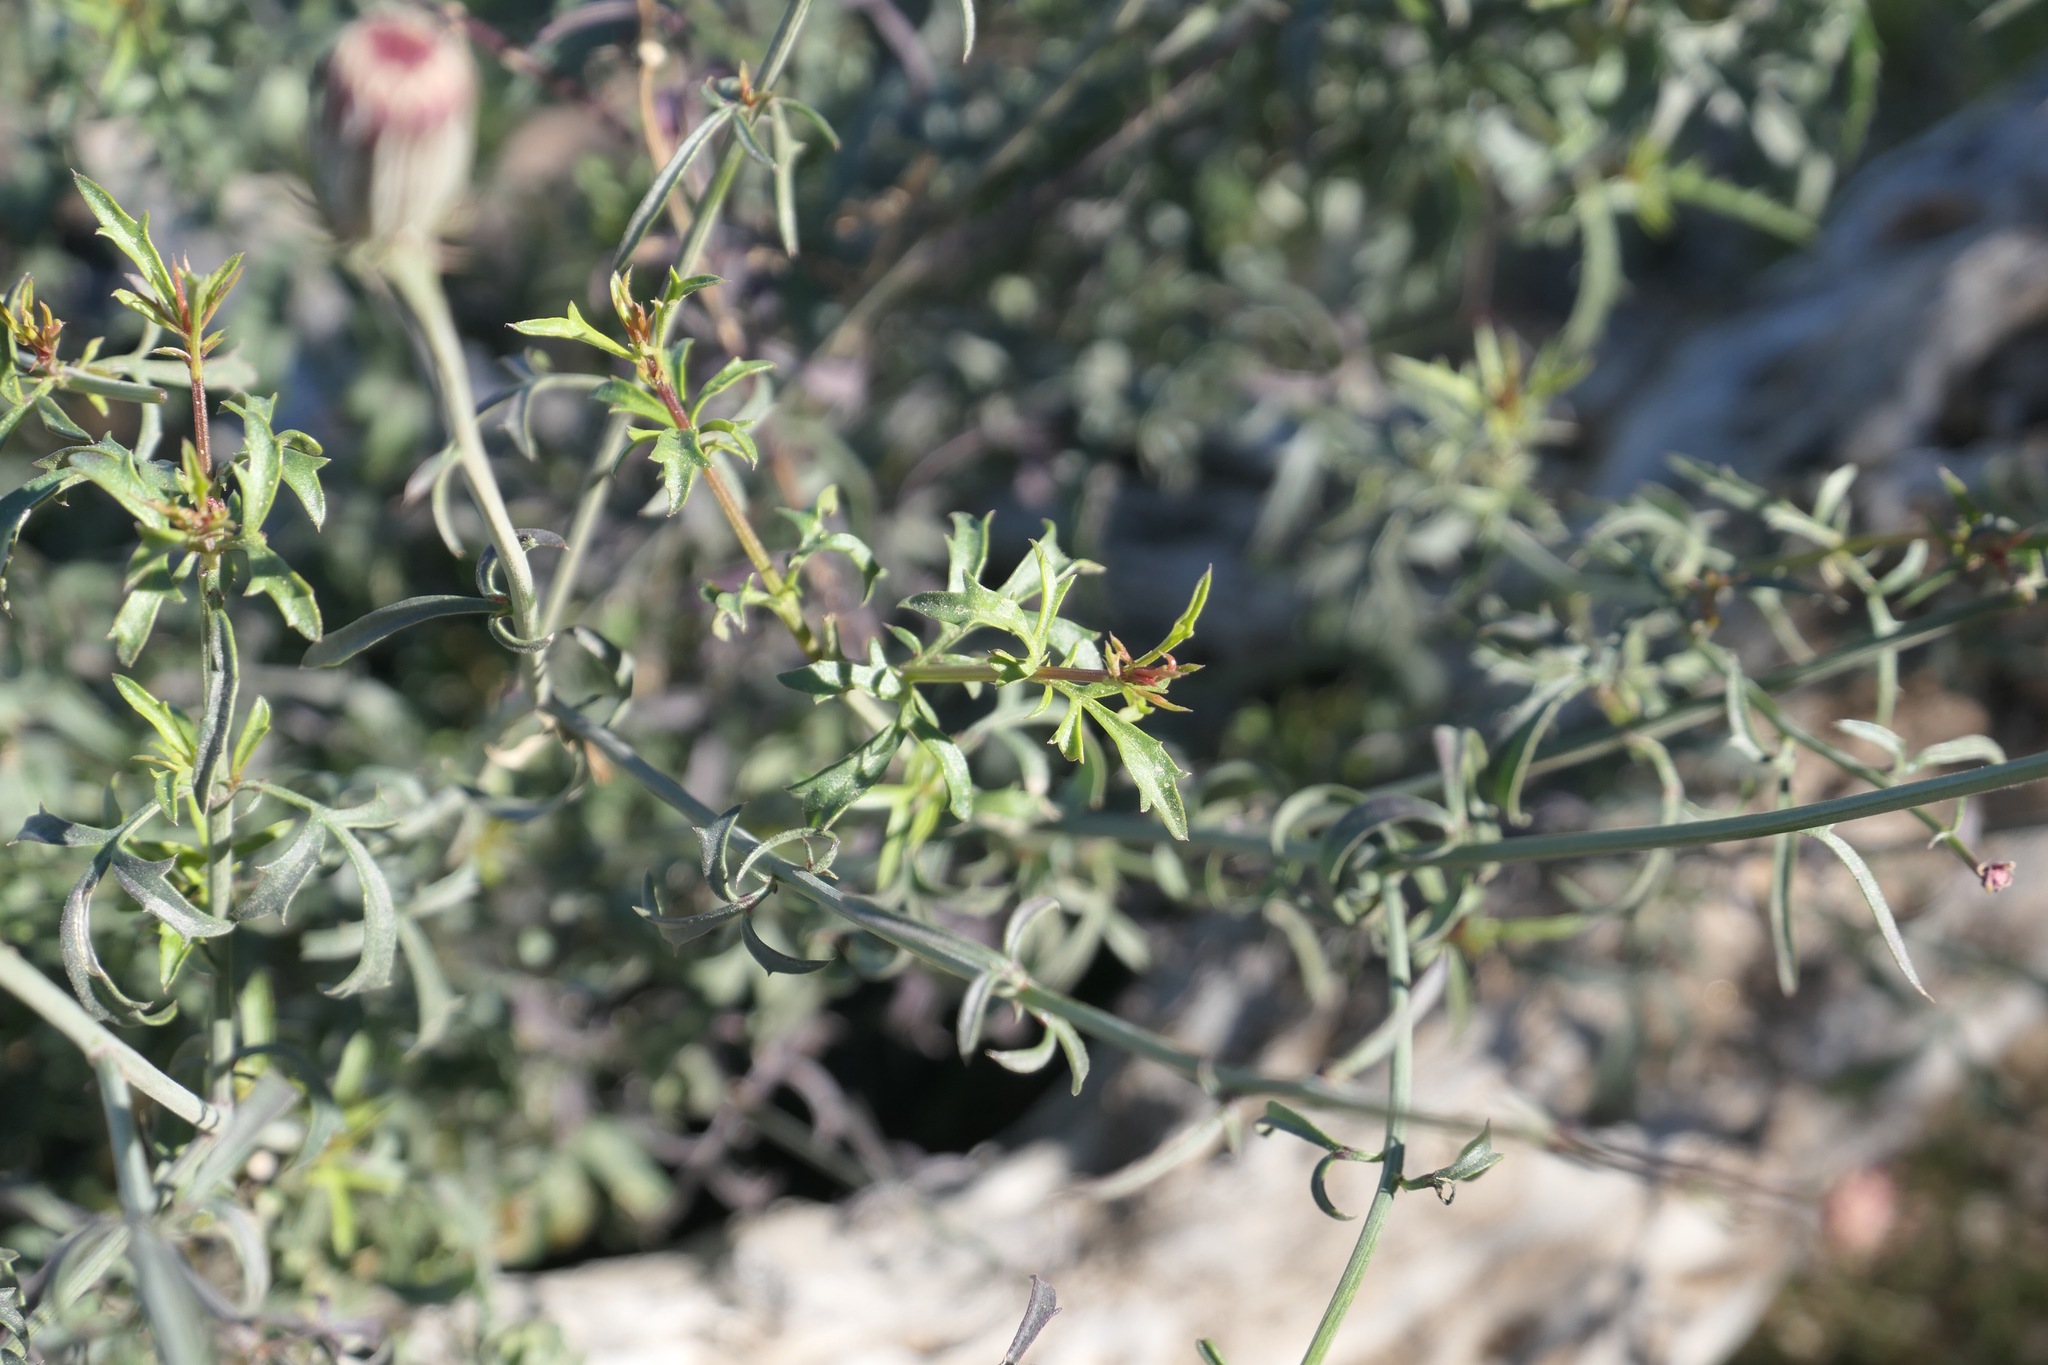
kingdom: Plantae
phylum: Tracheophyta
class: Magnoliopsida
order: Asterales
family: Asteraceae
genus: Adenophyllum
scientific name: Adenophyllum porophylloides
